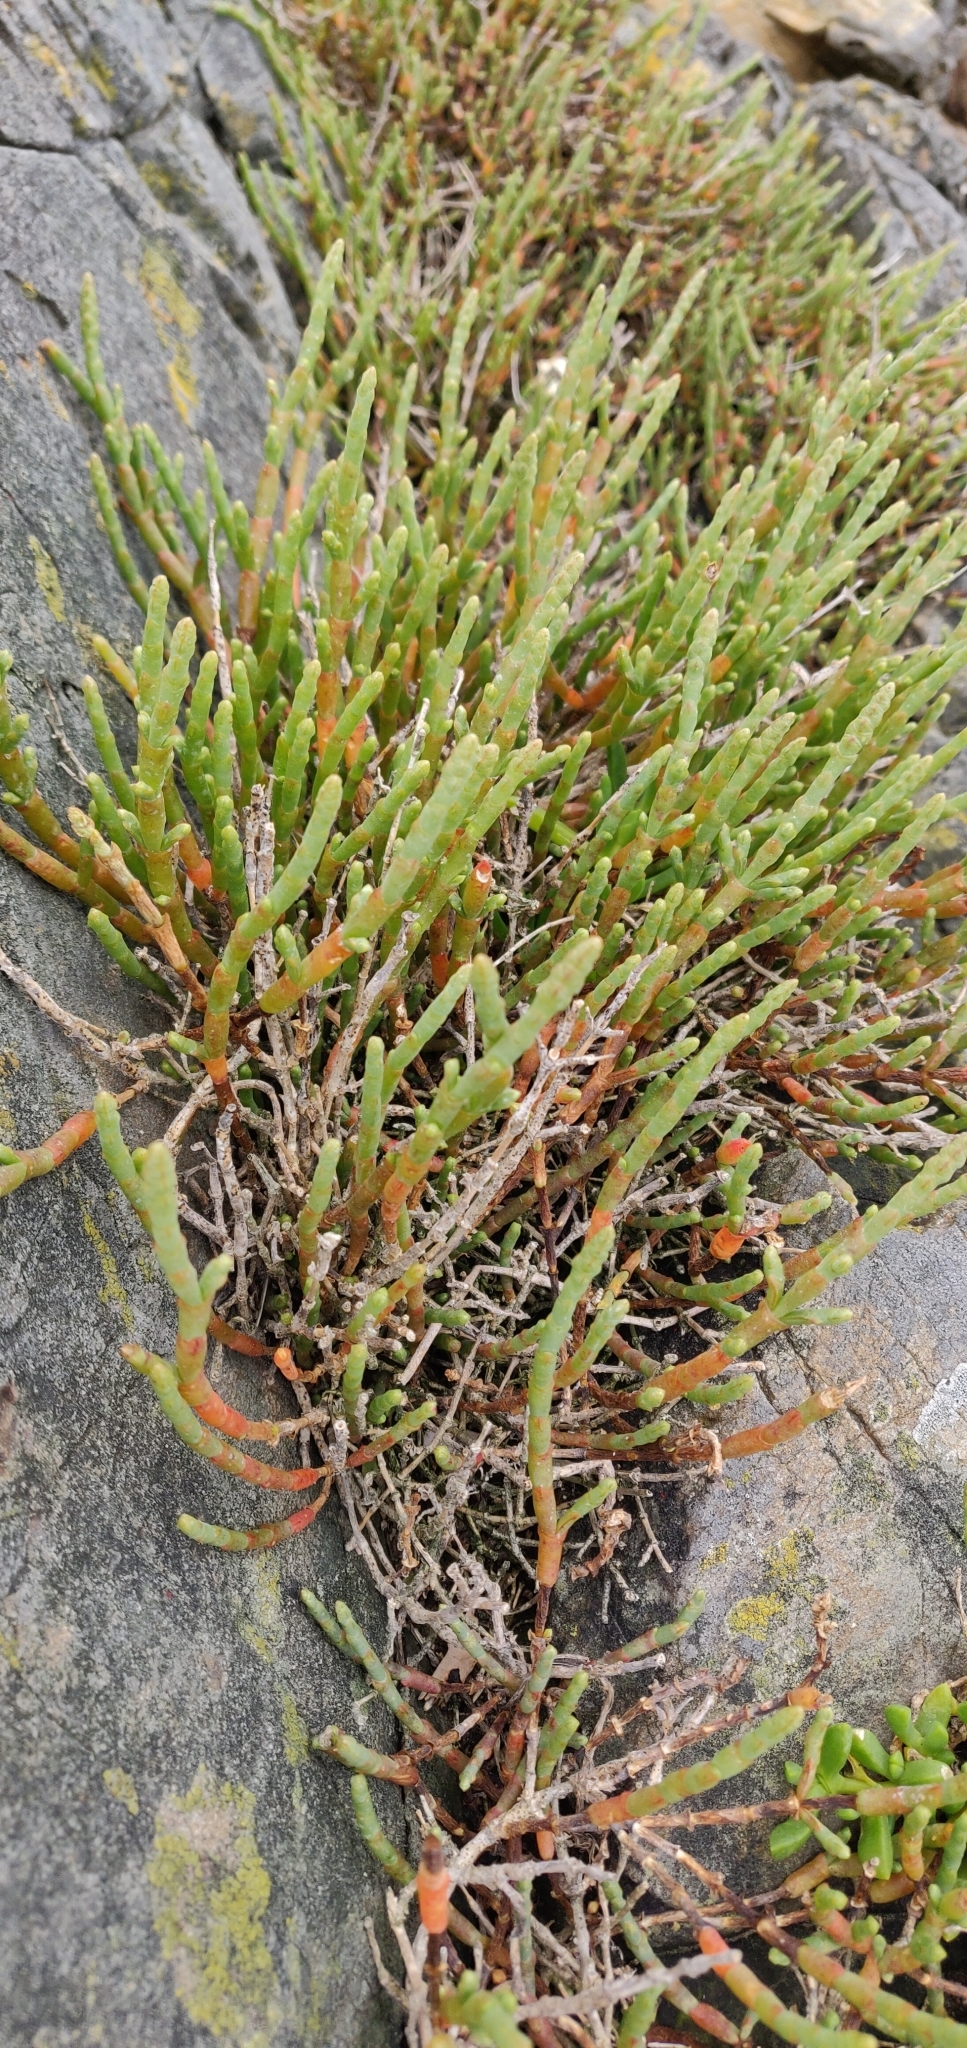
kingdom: Plantae
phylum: Tracheophyta
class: Magnoliopsida
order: Caryophyllales
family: Amaranthaceae
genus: Salicornia
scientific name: Salicornia quinqueflora
